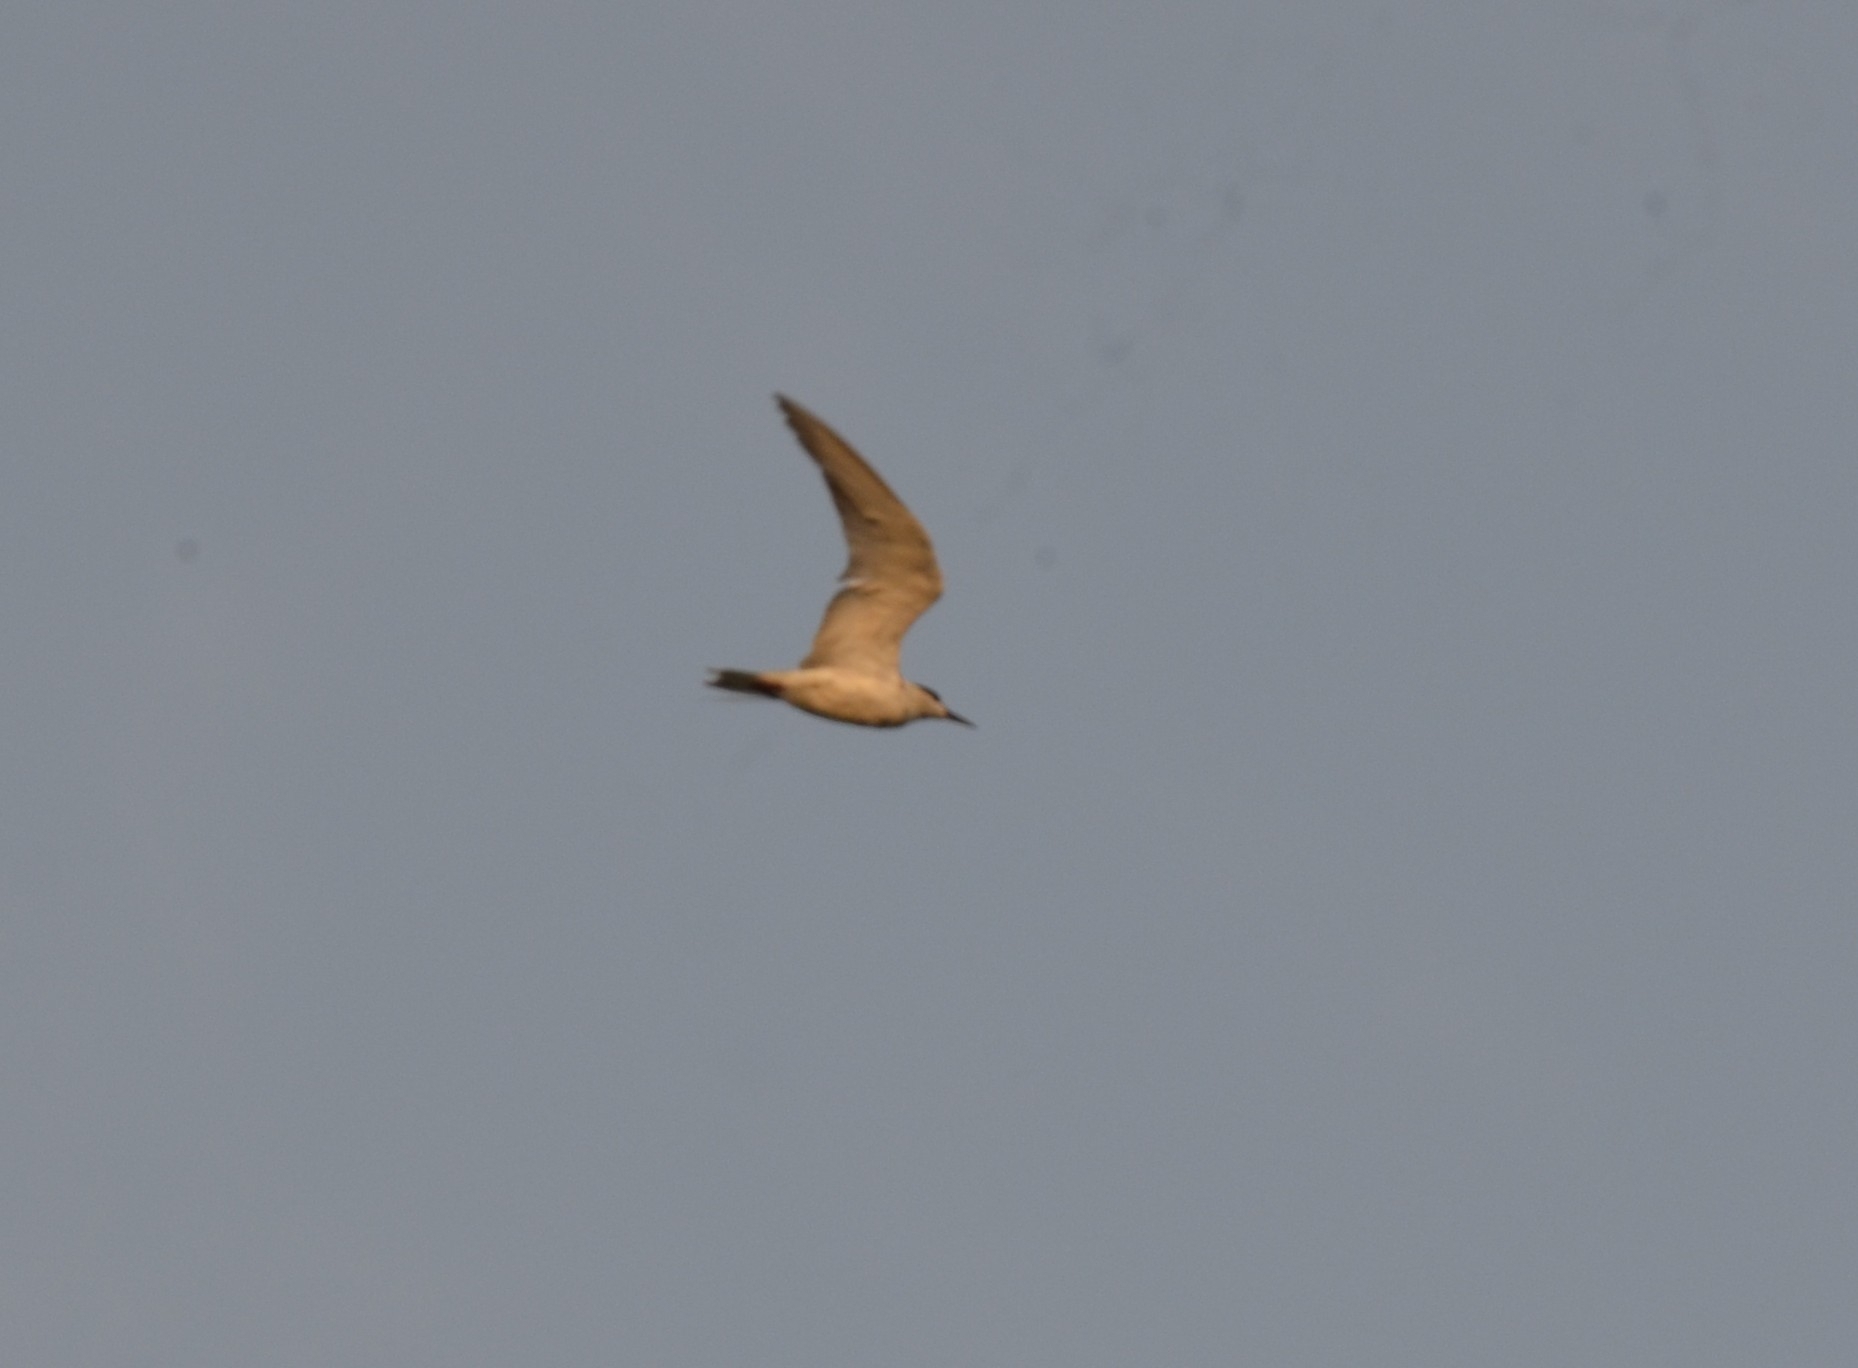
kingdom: Animalia
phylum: Chordata
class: Aves
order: Charadriiformes
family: Laridae
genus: Chlidonias
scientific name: Chlidonias hybrida
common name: Whiskered tern
